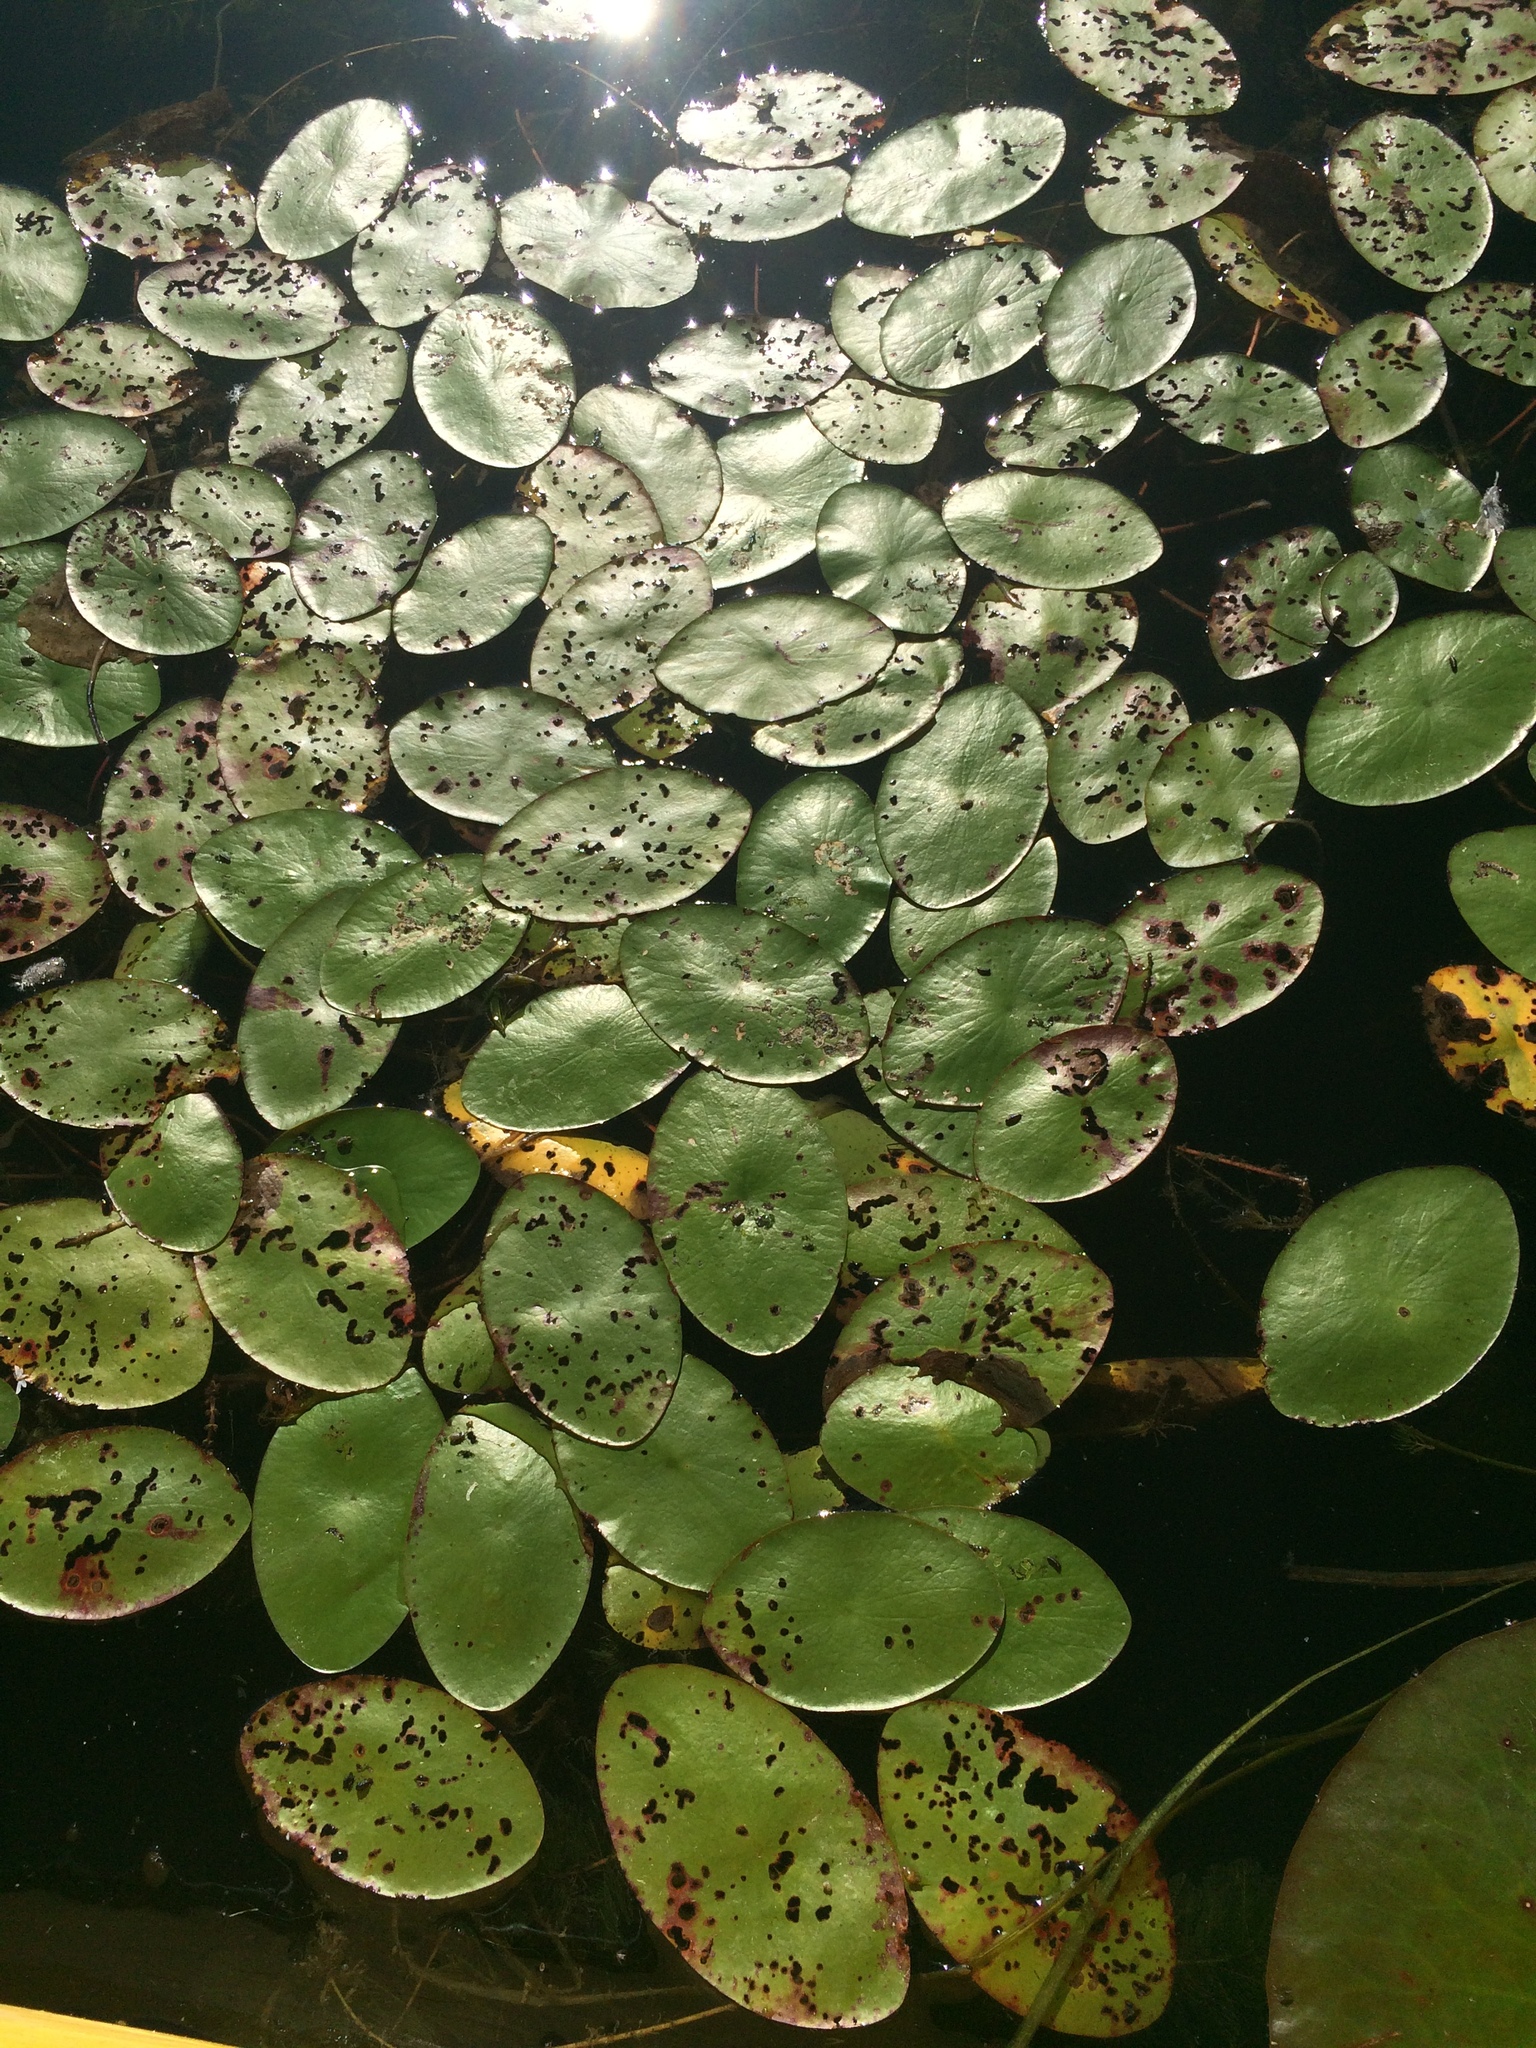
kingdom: Plantae
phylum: Tracheophyta
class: Magnoliopsida
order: Nymphaeales
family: Cabombaceae
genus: Brasenia
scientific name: Brasenia schreberi
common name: Water-shield
